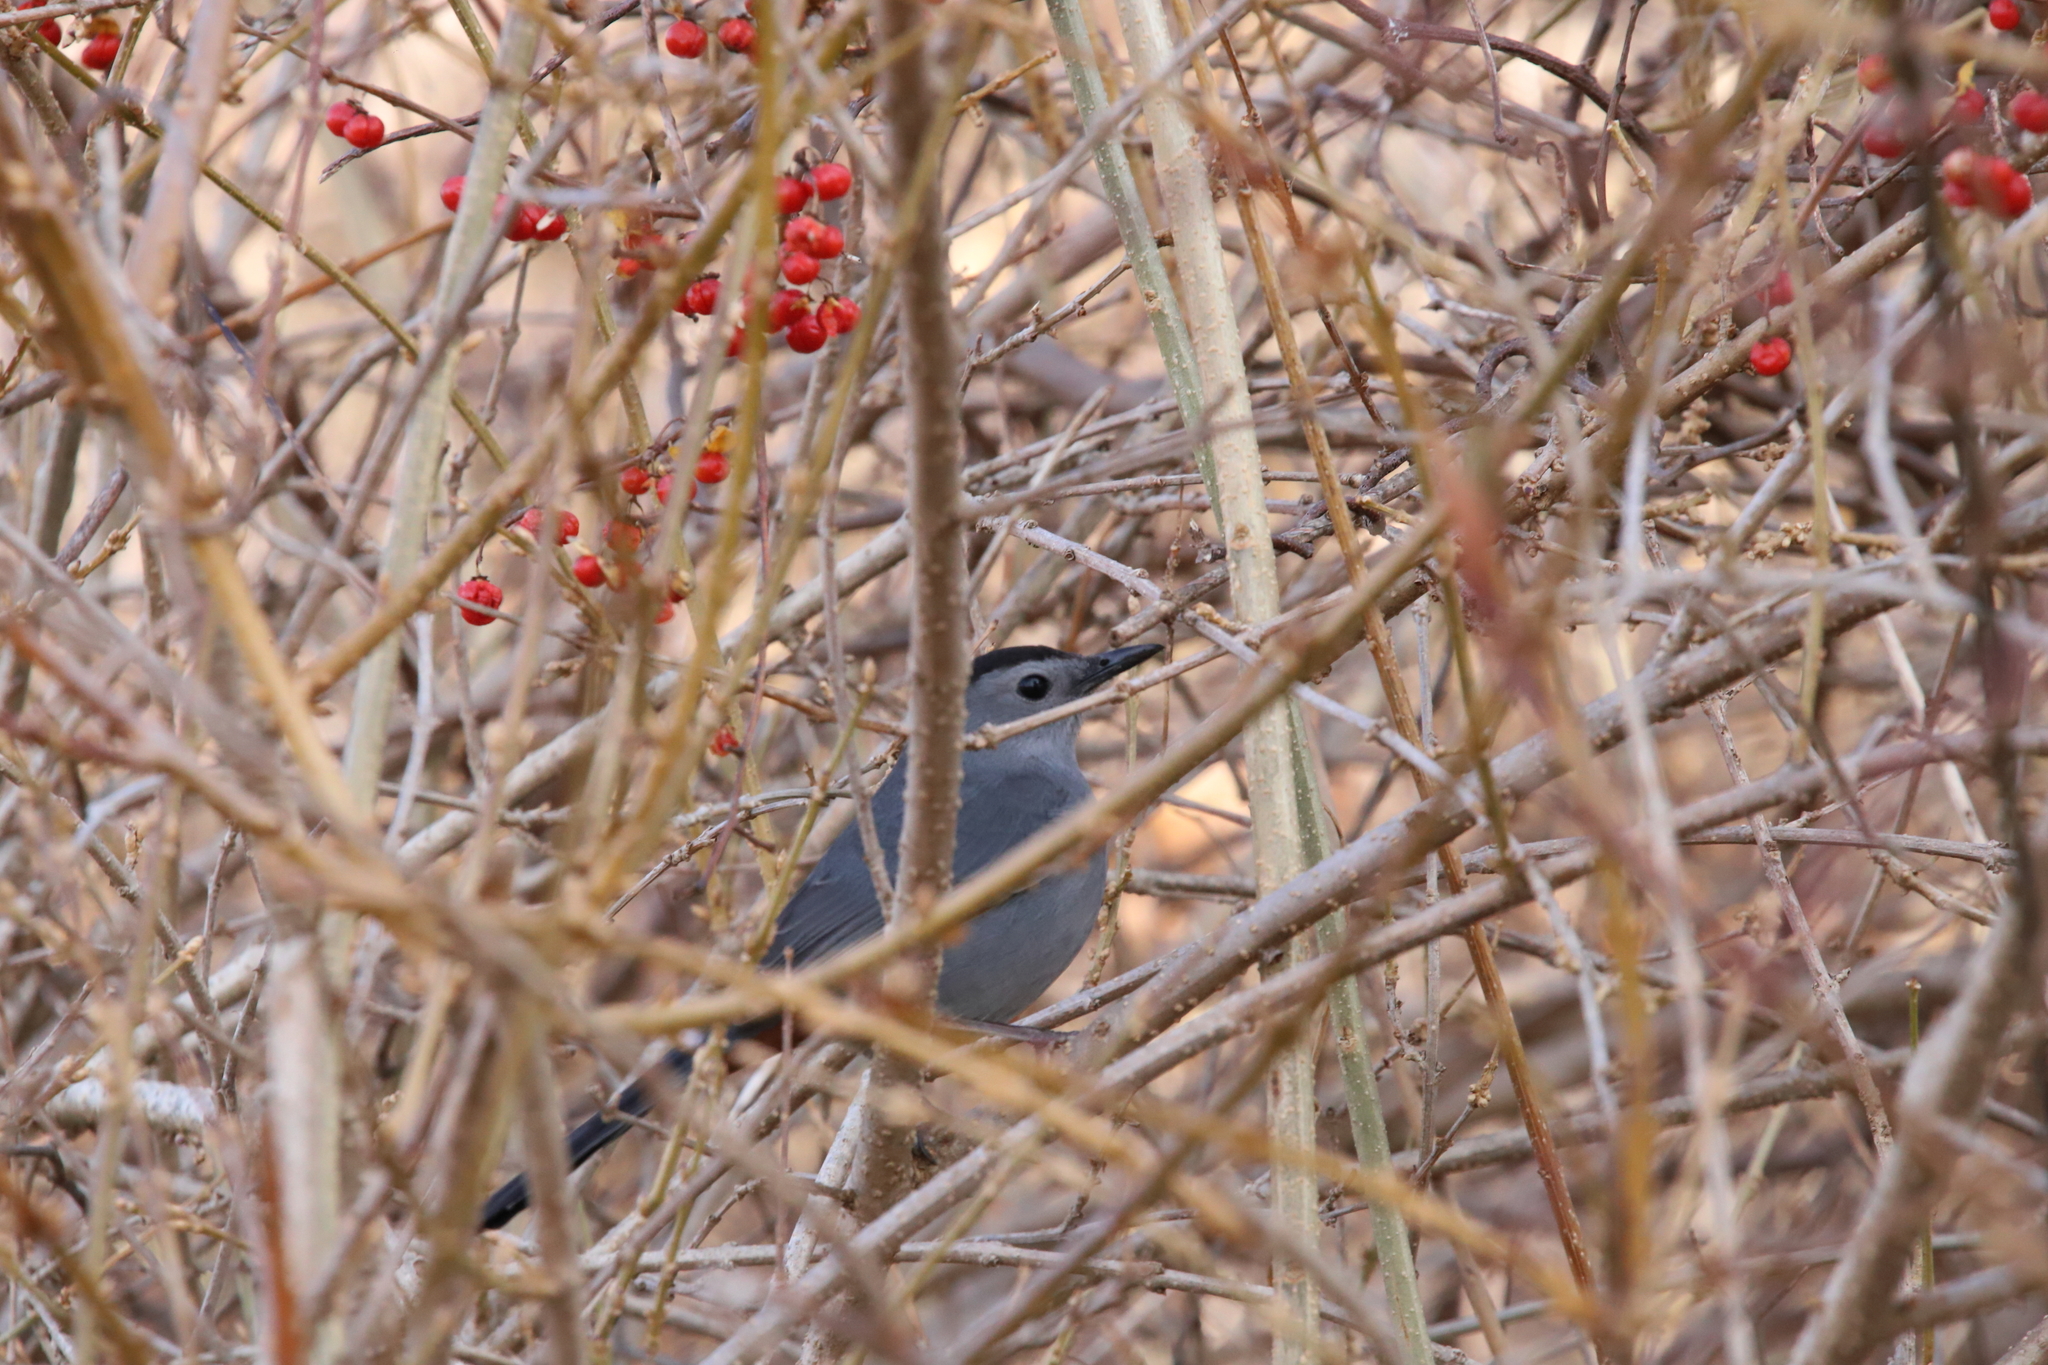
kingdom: Animalia
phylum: Chordata
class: Aves
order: Passeriformes
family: Mimidae
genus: Dumetella
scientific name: Dumetella carolinensis
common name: Gray catbird
